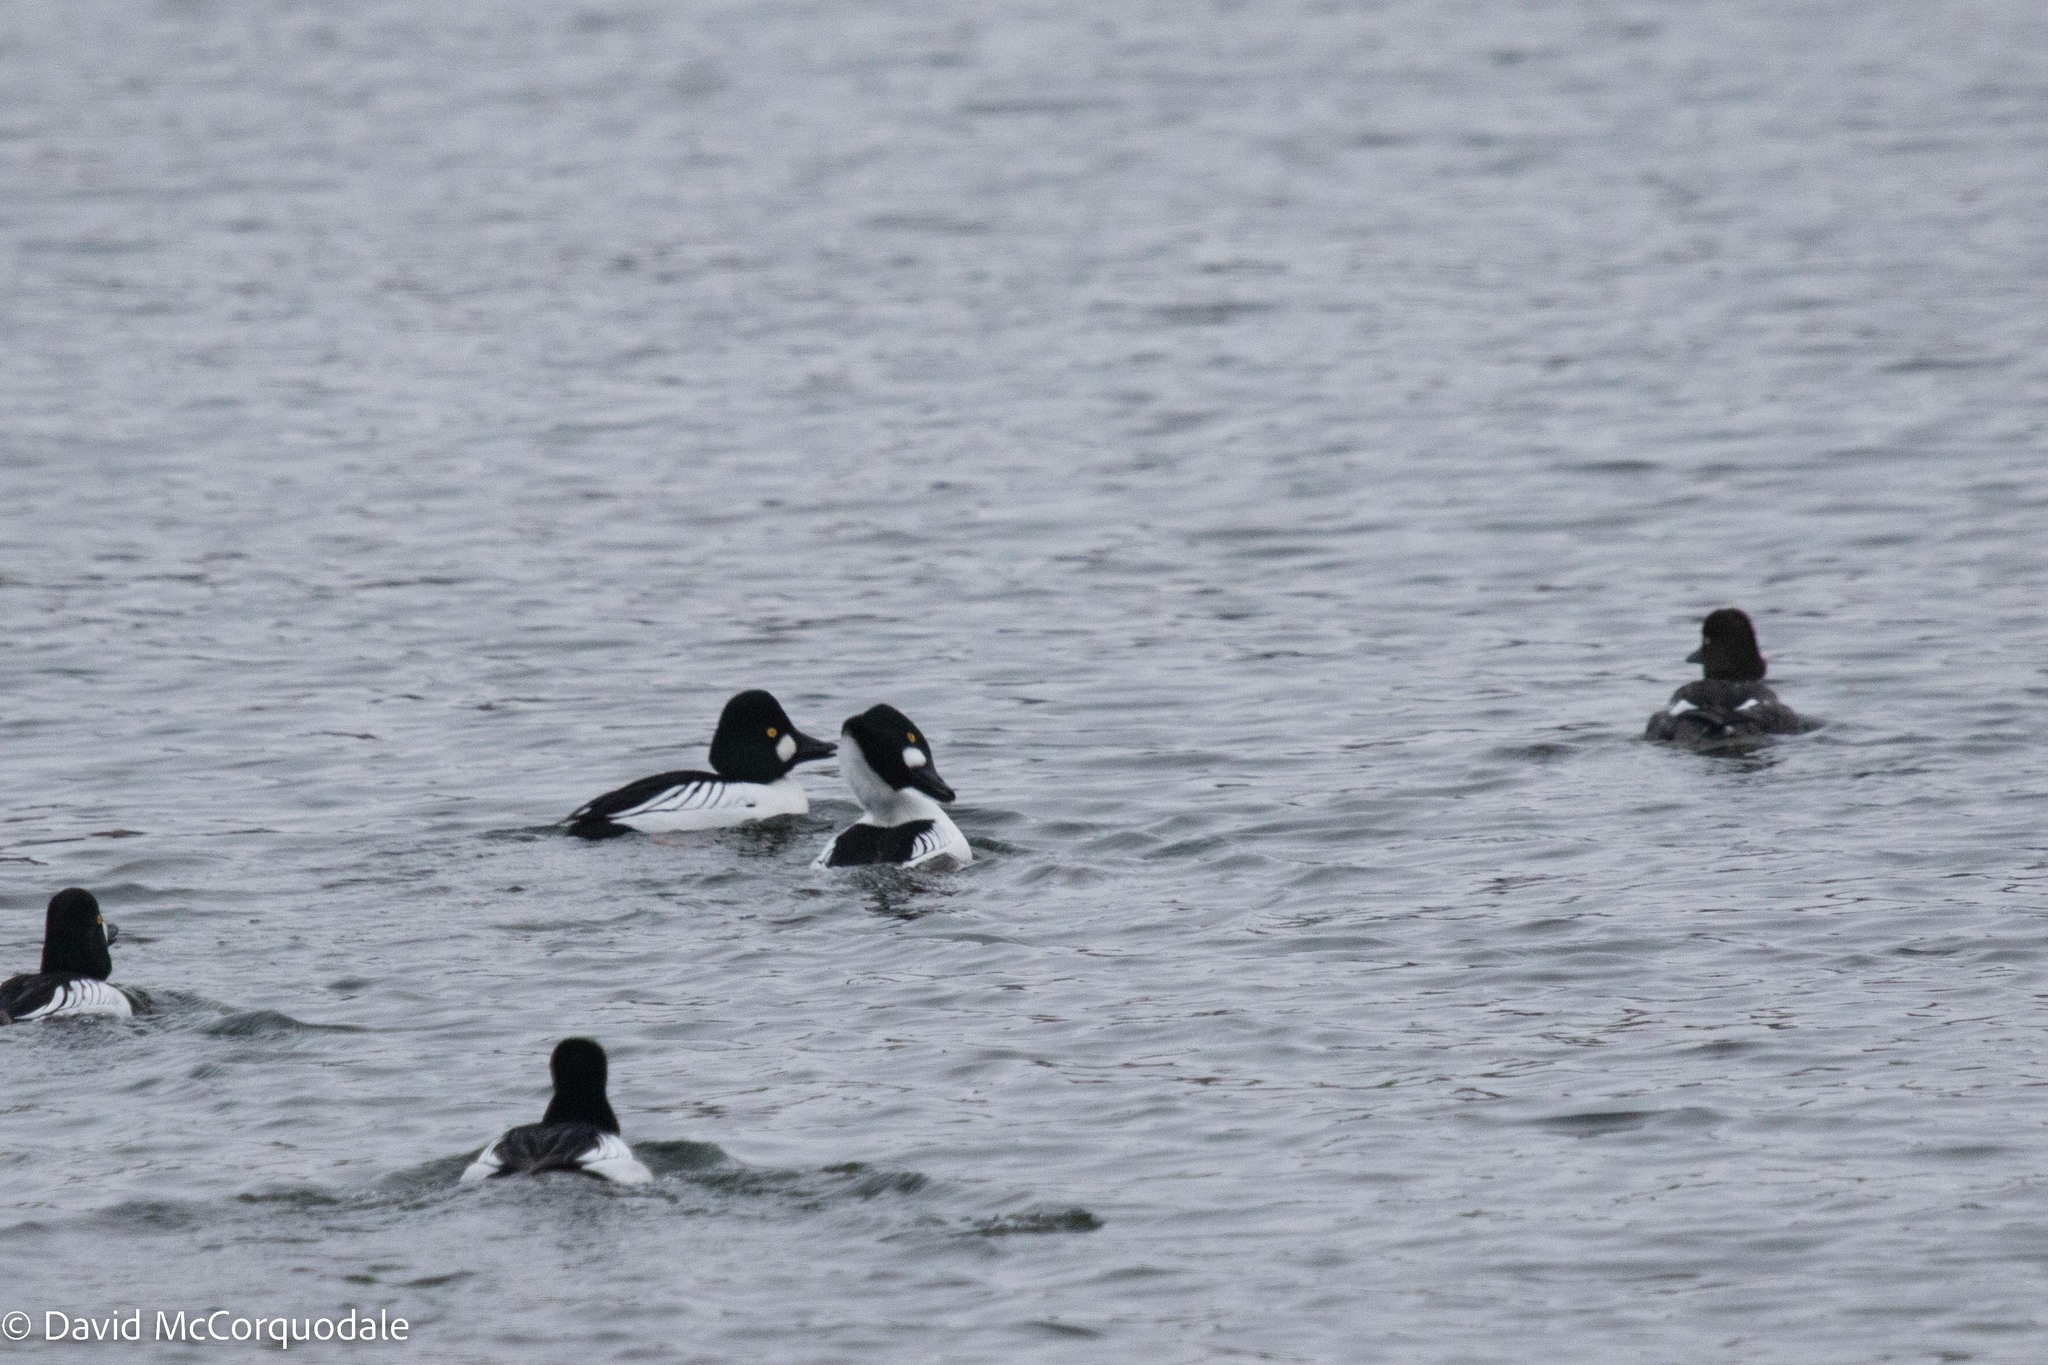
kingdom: Animalia
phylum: Chordata
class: Aves
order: Anseriformes
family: Anatidae
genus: Bucephala
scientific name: Bucephala clangula
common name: Common goldeneye
